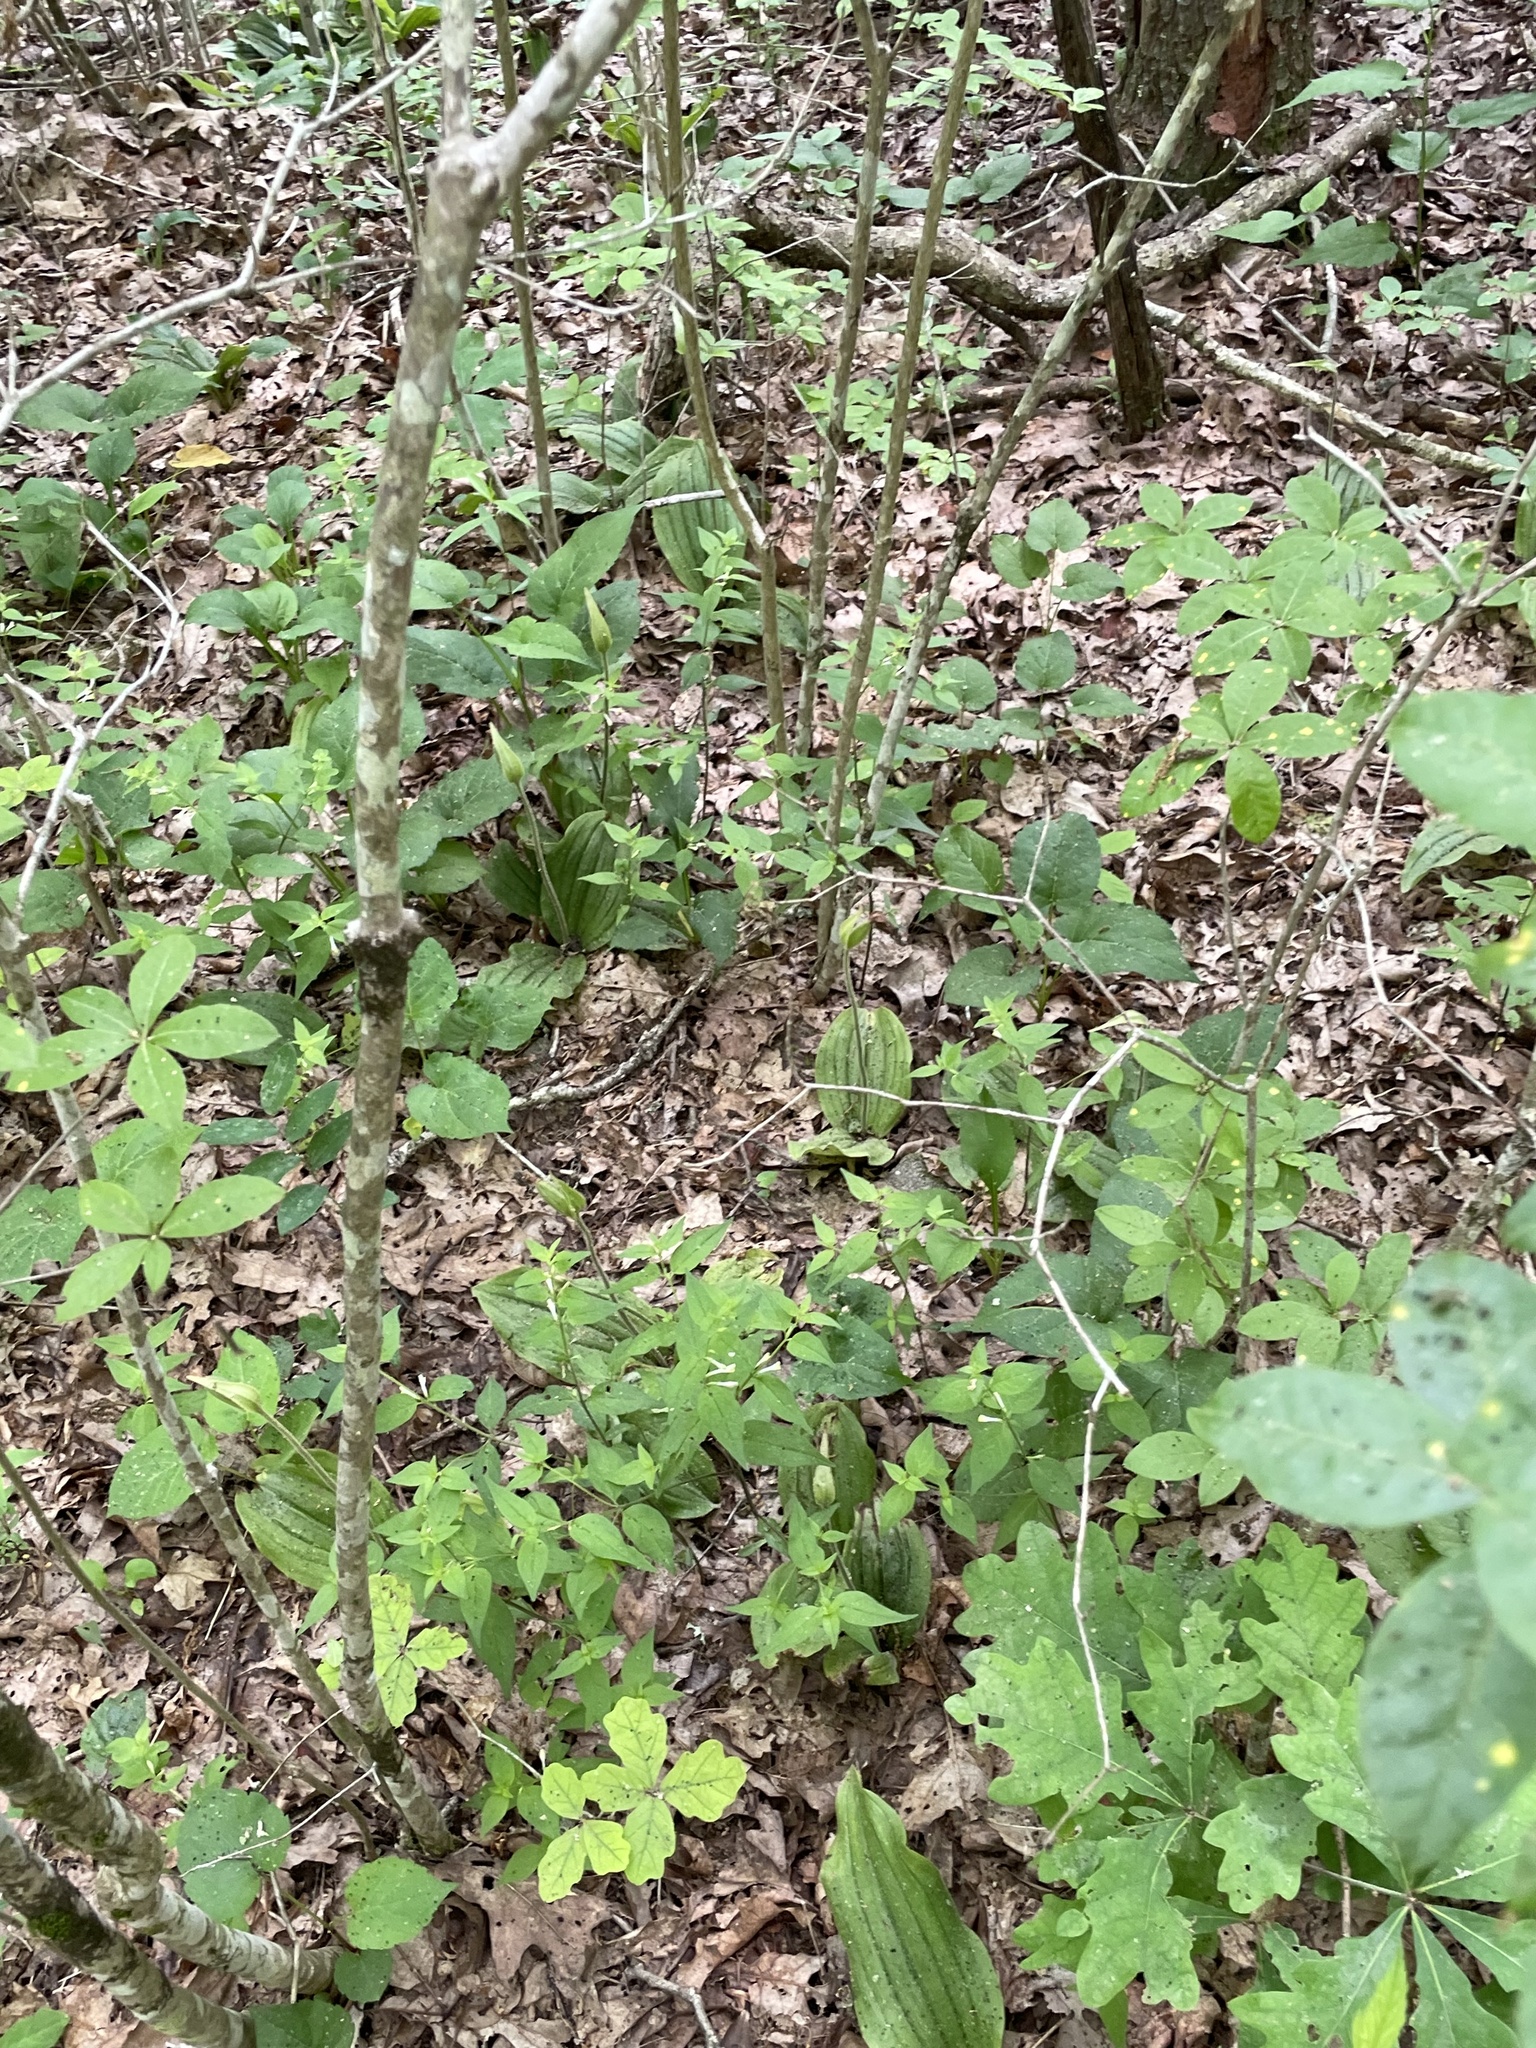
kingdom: Plantae
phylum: Tracheophyta
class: Liliopsida
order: Asparagales
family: Orchidaceae
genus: Cypripedium
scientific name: Cypripedium acaule
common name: Pink lady's-slipper
